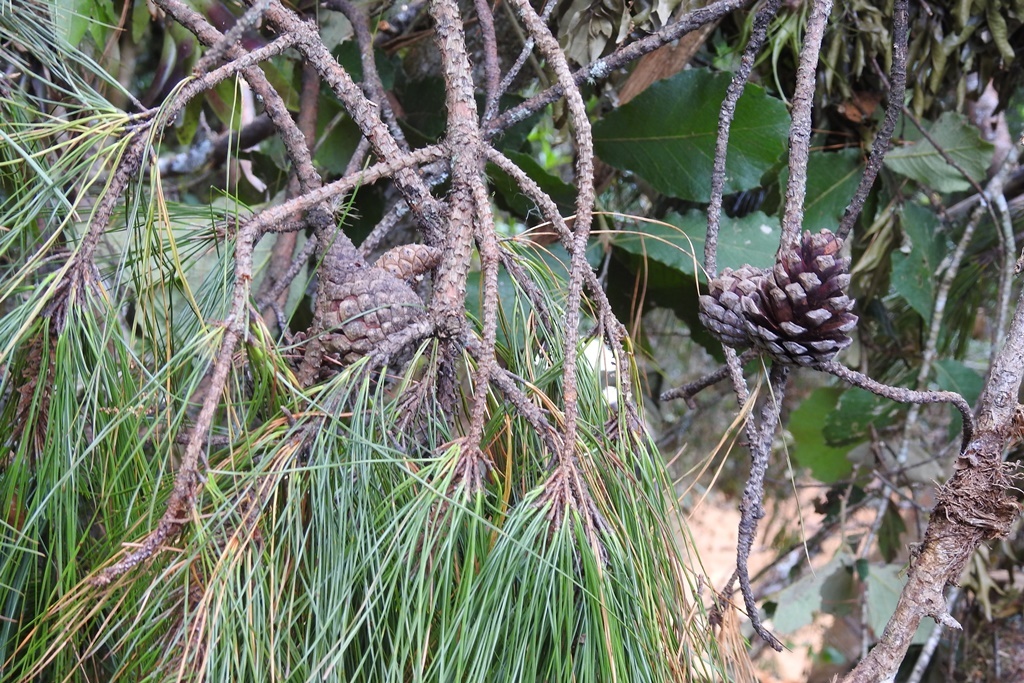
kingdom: Plantae
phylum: Tracheophyta
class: Pinopsida
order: Pinales
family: Pinaceae
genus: Pinus
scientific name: Pinus tecunumanii
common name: Schwerdtfeger's pine
